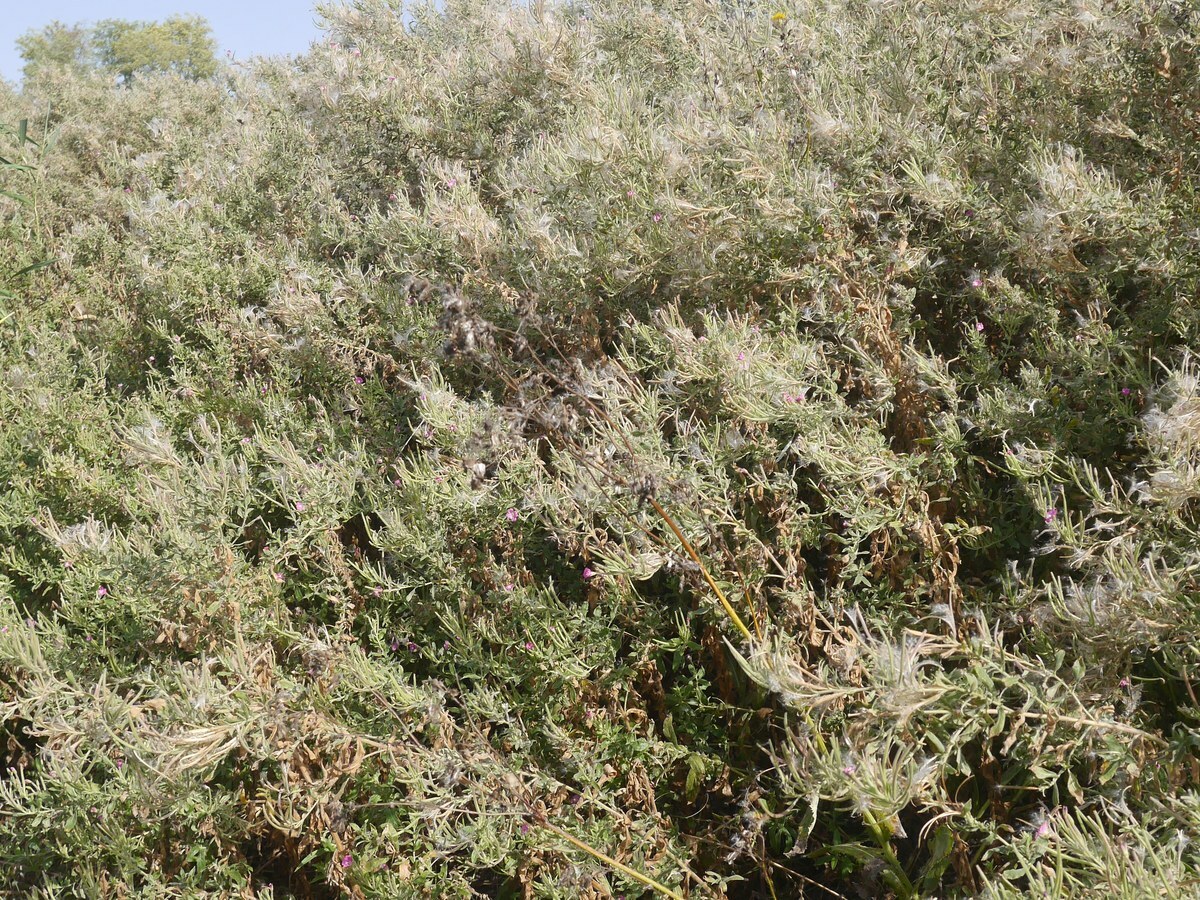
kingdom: Plantae
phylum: Tracheophyta
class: Magnoliopsida
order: Myrtales
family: Onagraceae
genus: Epilobium
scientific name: Epilobium hirsutum
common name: Great willowherb
